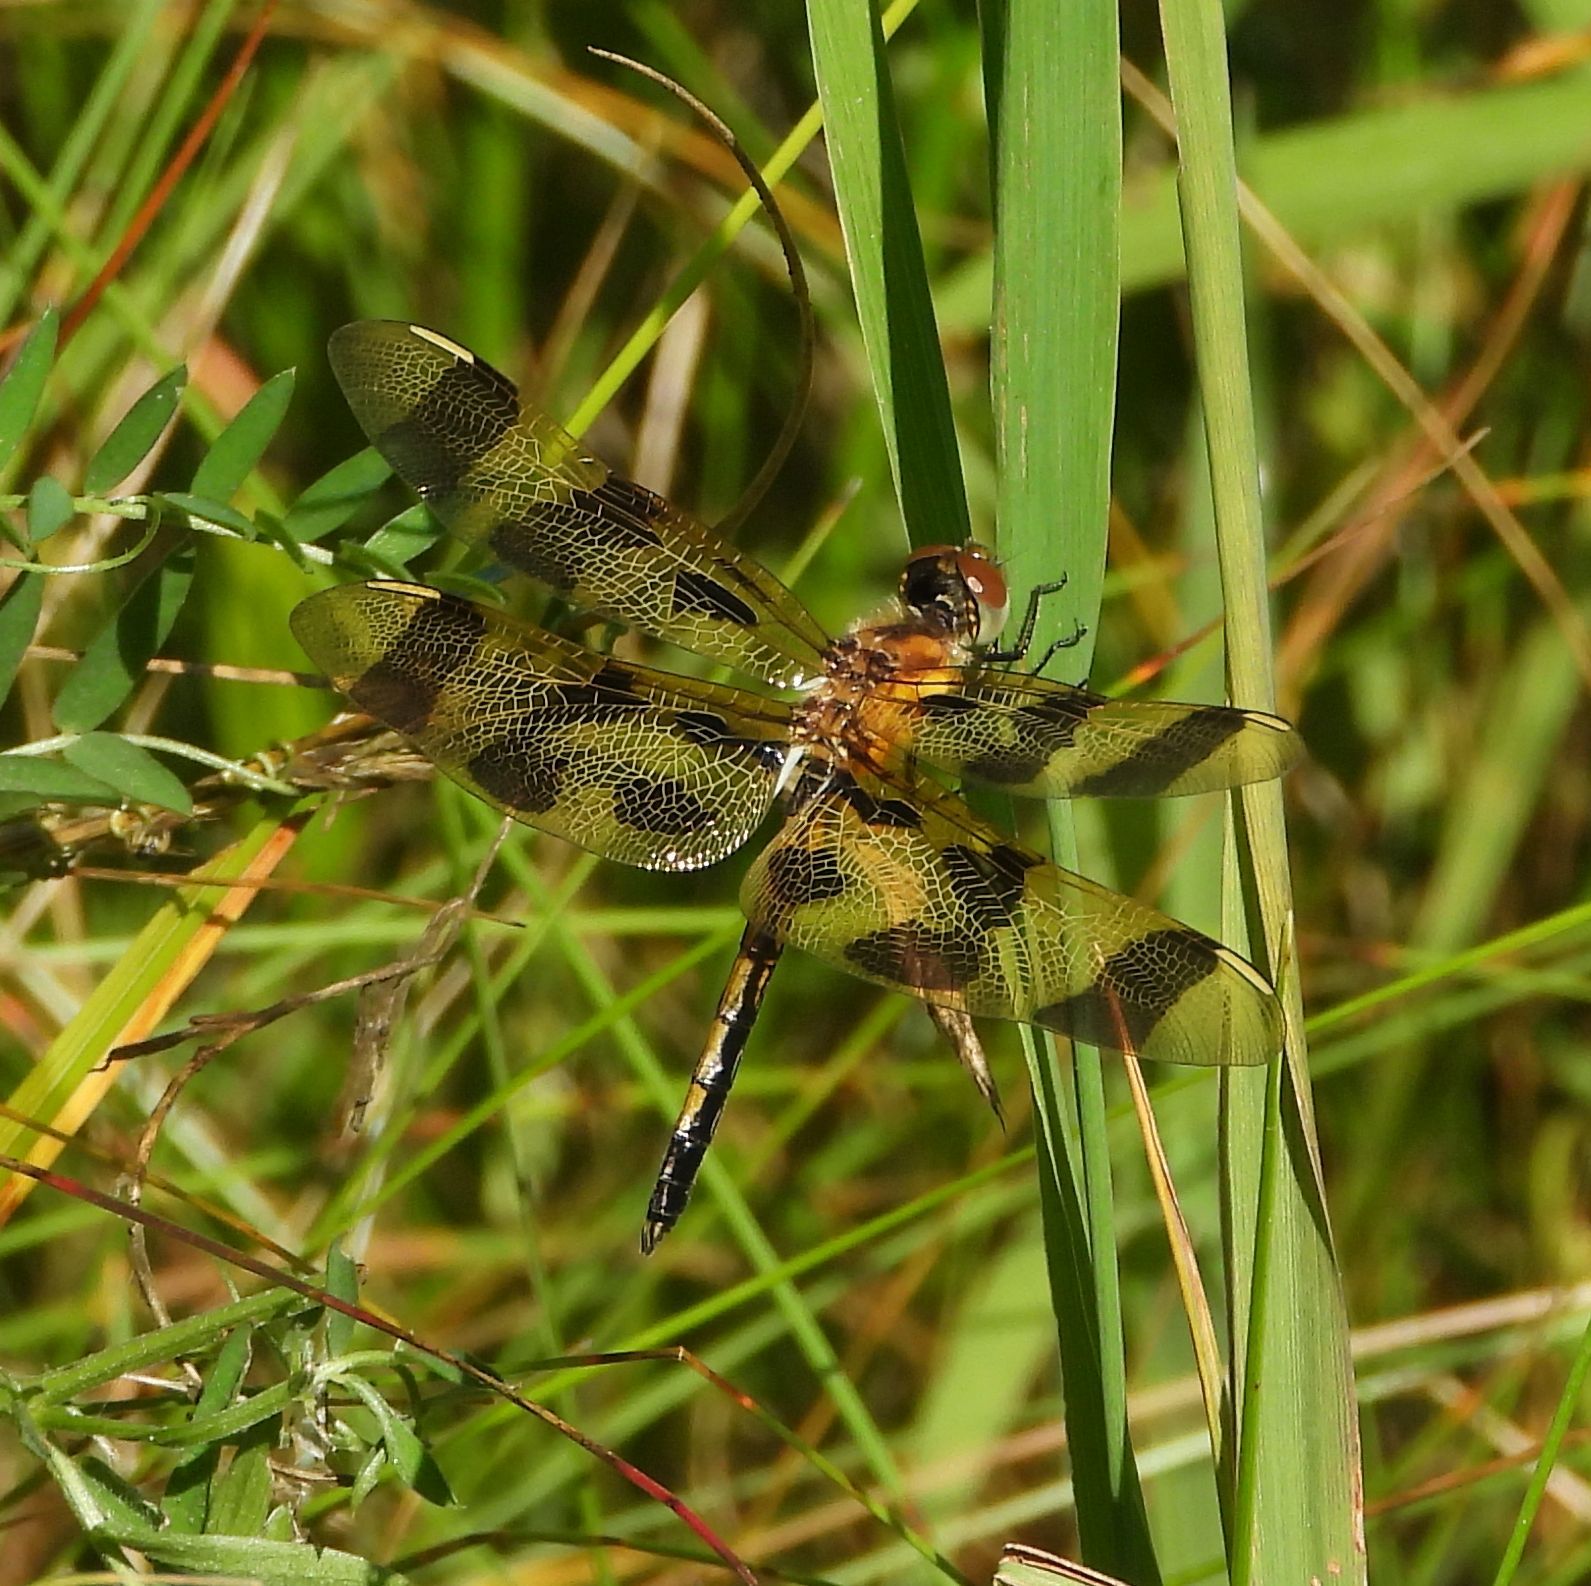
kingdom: Animalia
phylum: Arthropoda
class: Insecta
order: Odonata
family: Libellulidae
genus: Celithemis
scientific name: Celithemis eponina
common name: Halloween pennant
